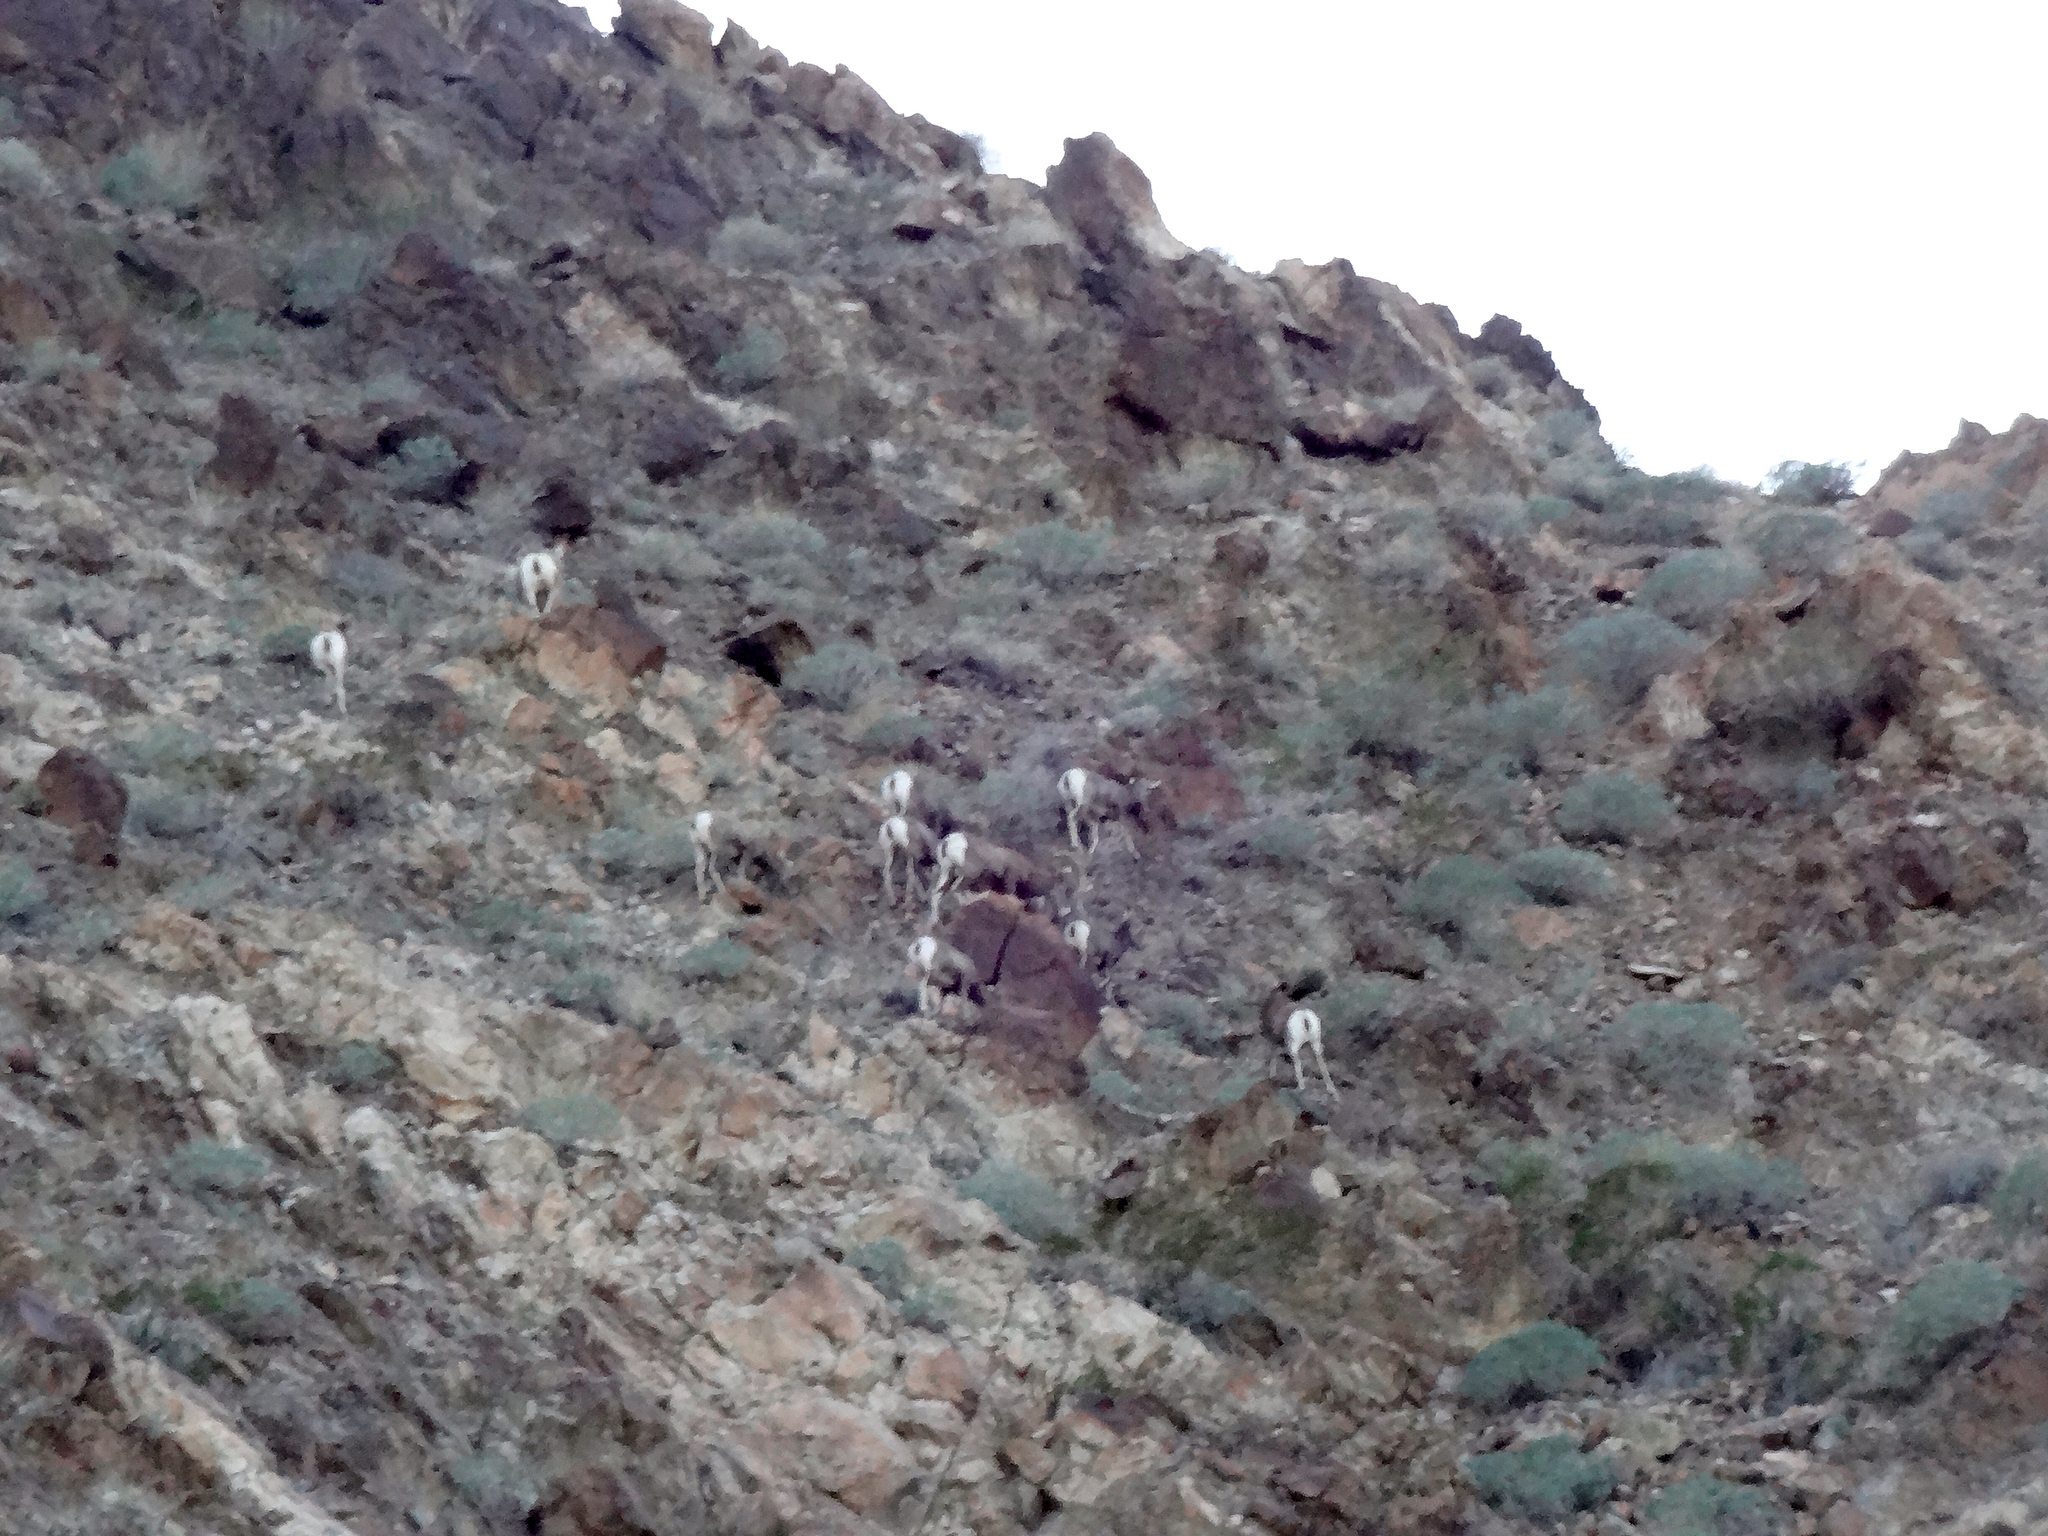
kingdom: Animalia
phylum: Chordata
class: Mammalia
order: Artiodactyla
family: Bovidae
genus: Ovis
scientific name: Ovis canadensis
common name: Bighorn sheep
